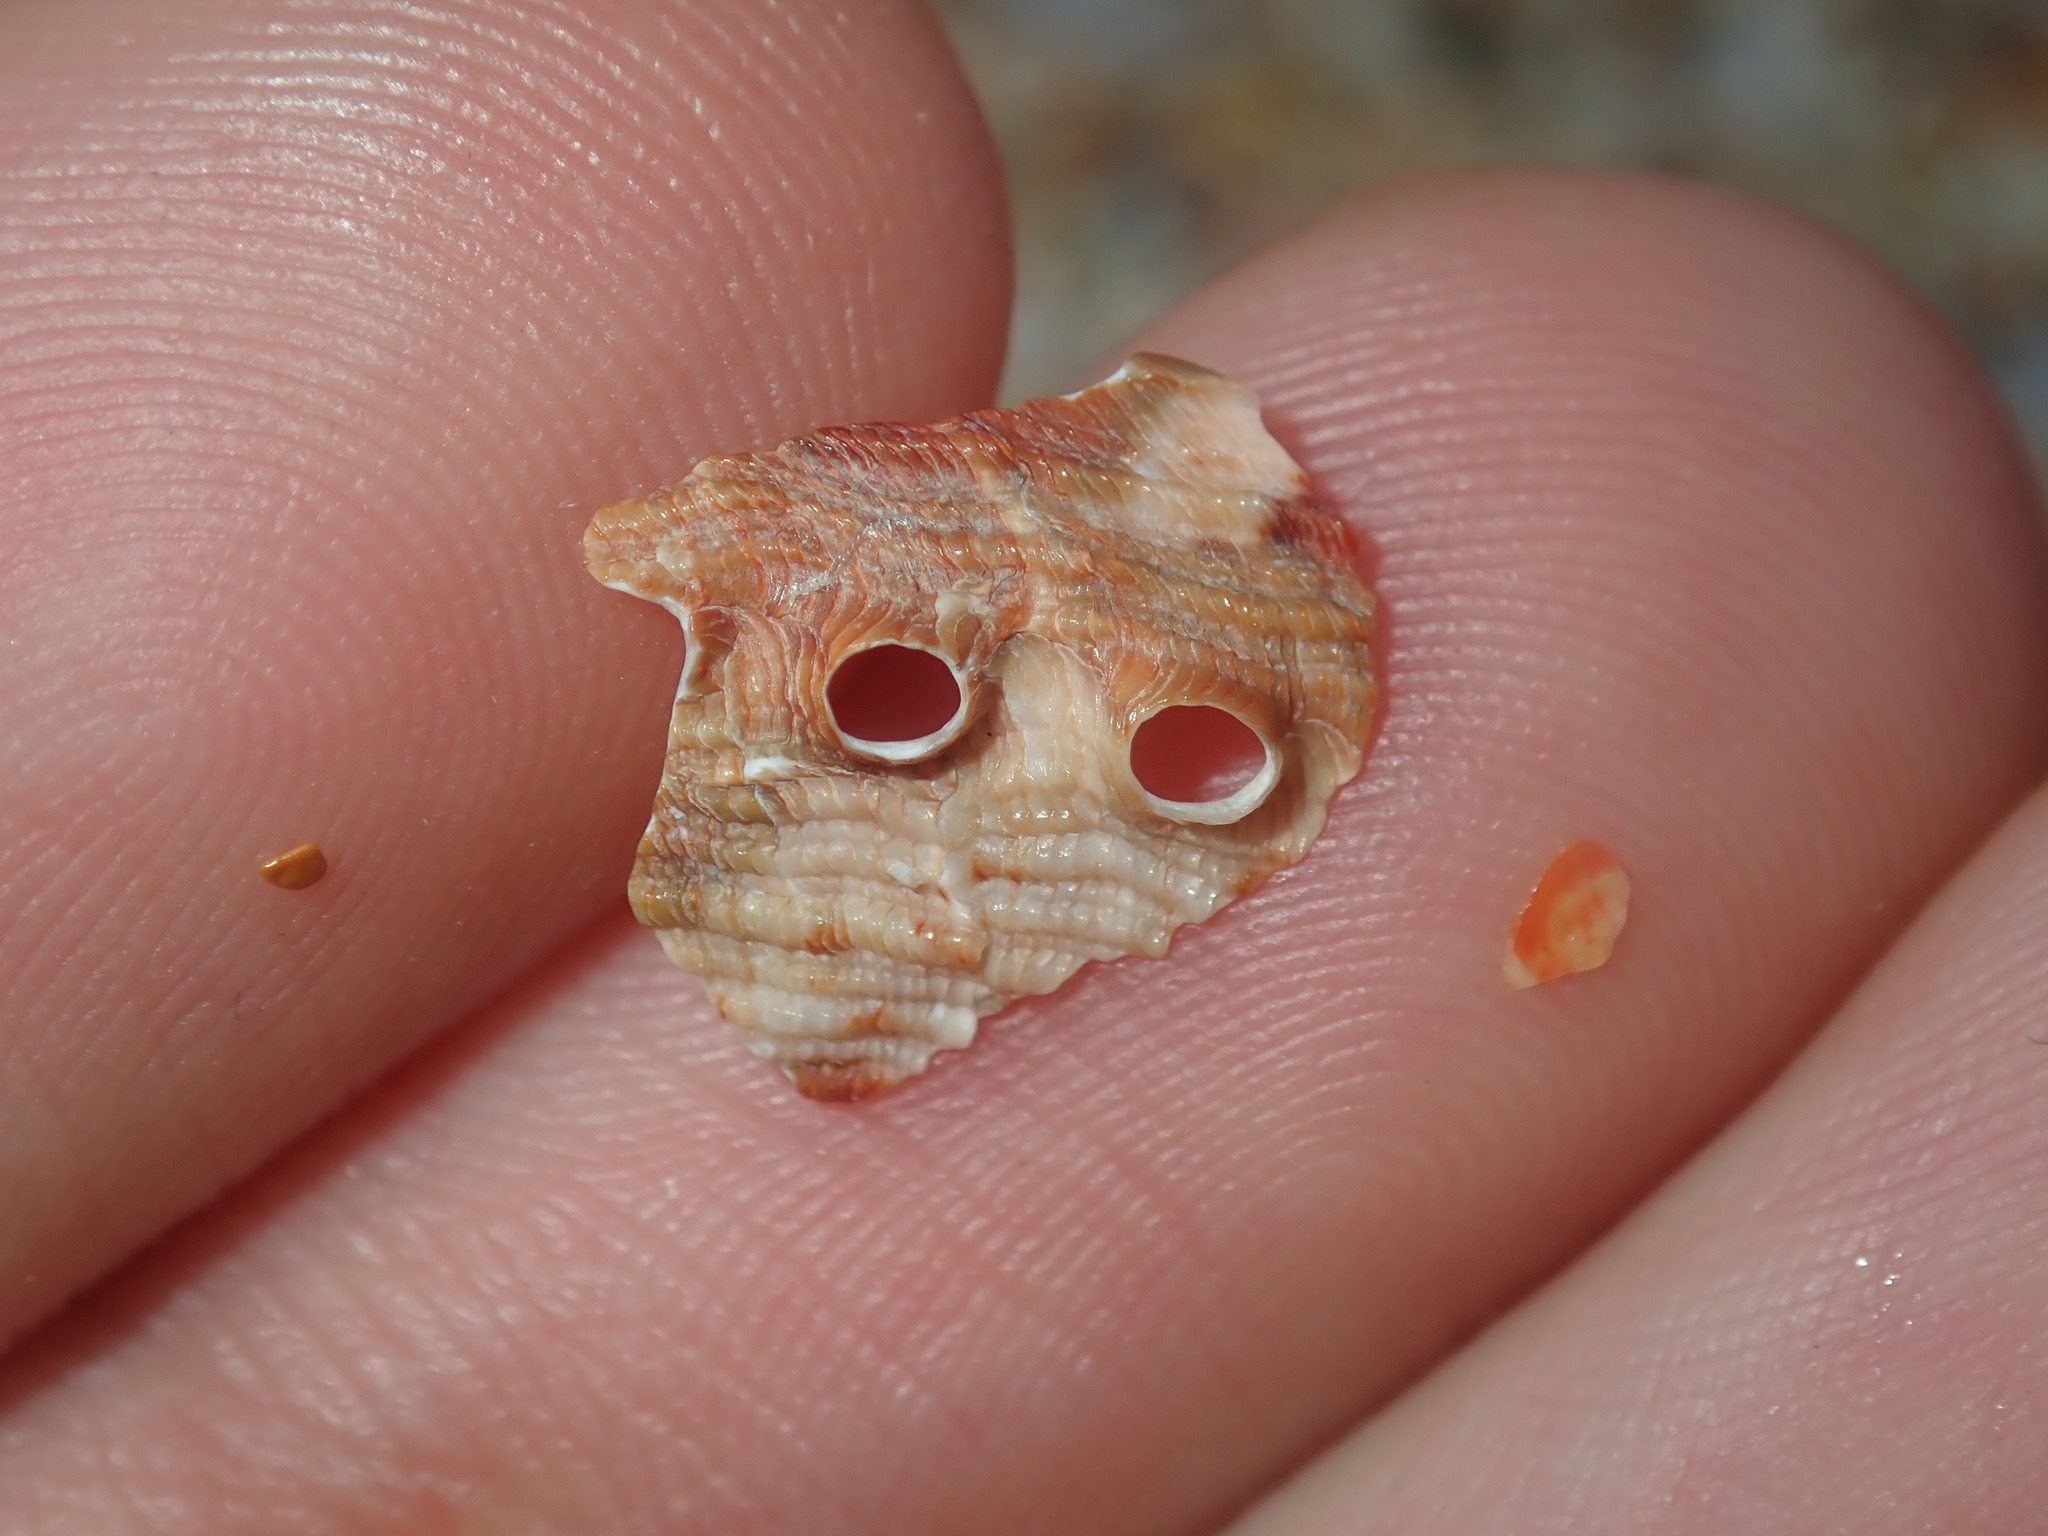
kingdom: Animalia
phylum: Mollusca
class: Gastropoda
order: Lepetellida
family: Haliotidae
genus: Haliotis
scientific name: Haliotis coccoradiata
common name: Reddish-rayed abalone
